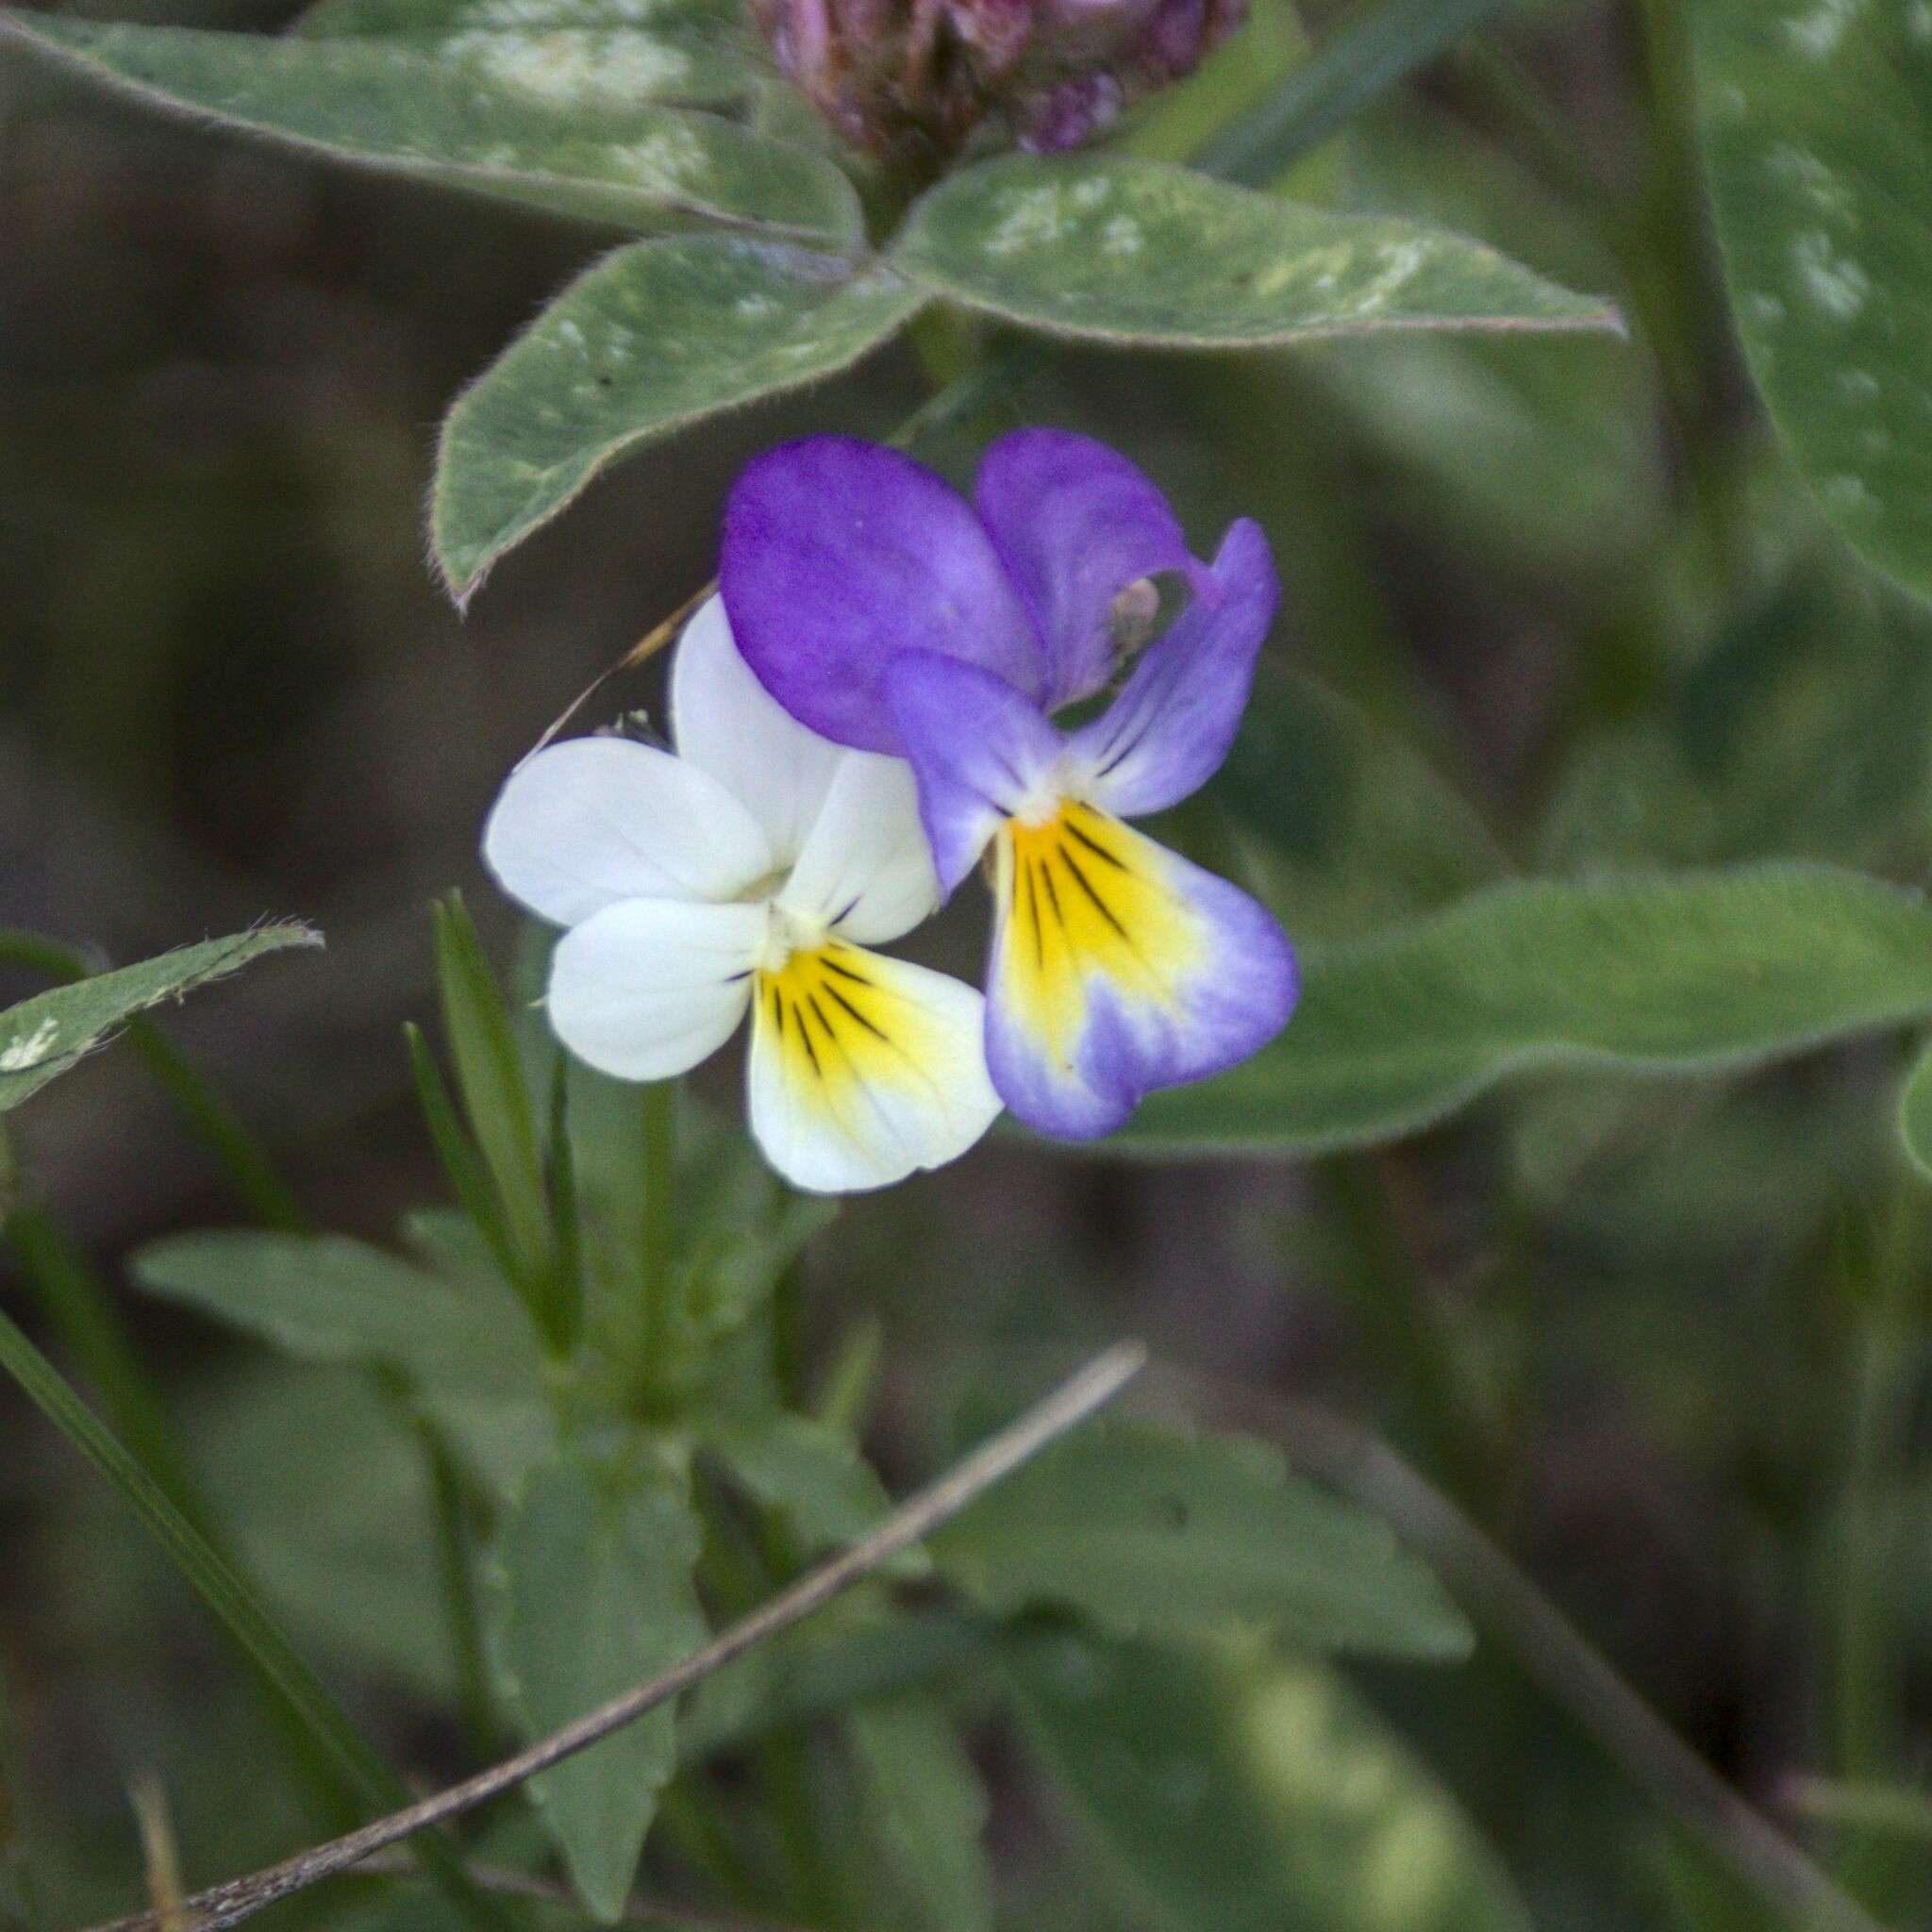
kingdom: Plantae
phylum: Tracheophyta
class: Magnoliopsida
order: Malpighiales
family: Violaceae
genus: Viola
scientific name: Viola tricolor
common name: Pansy
